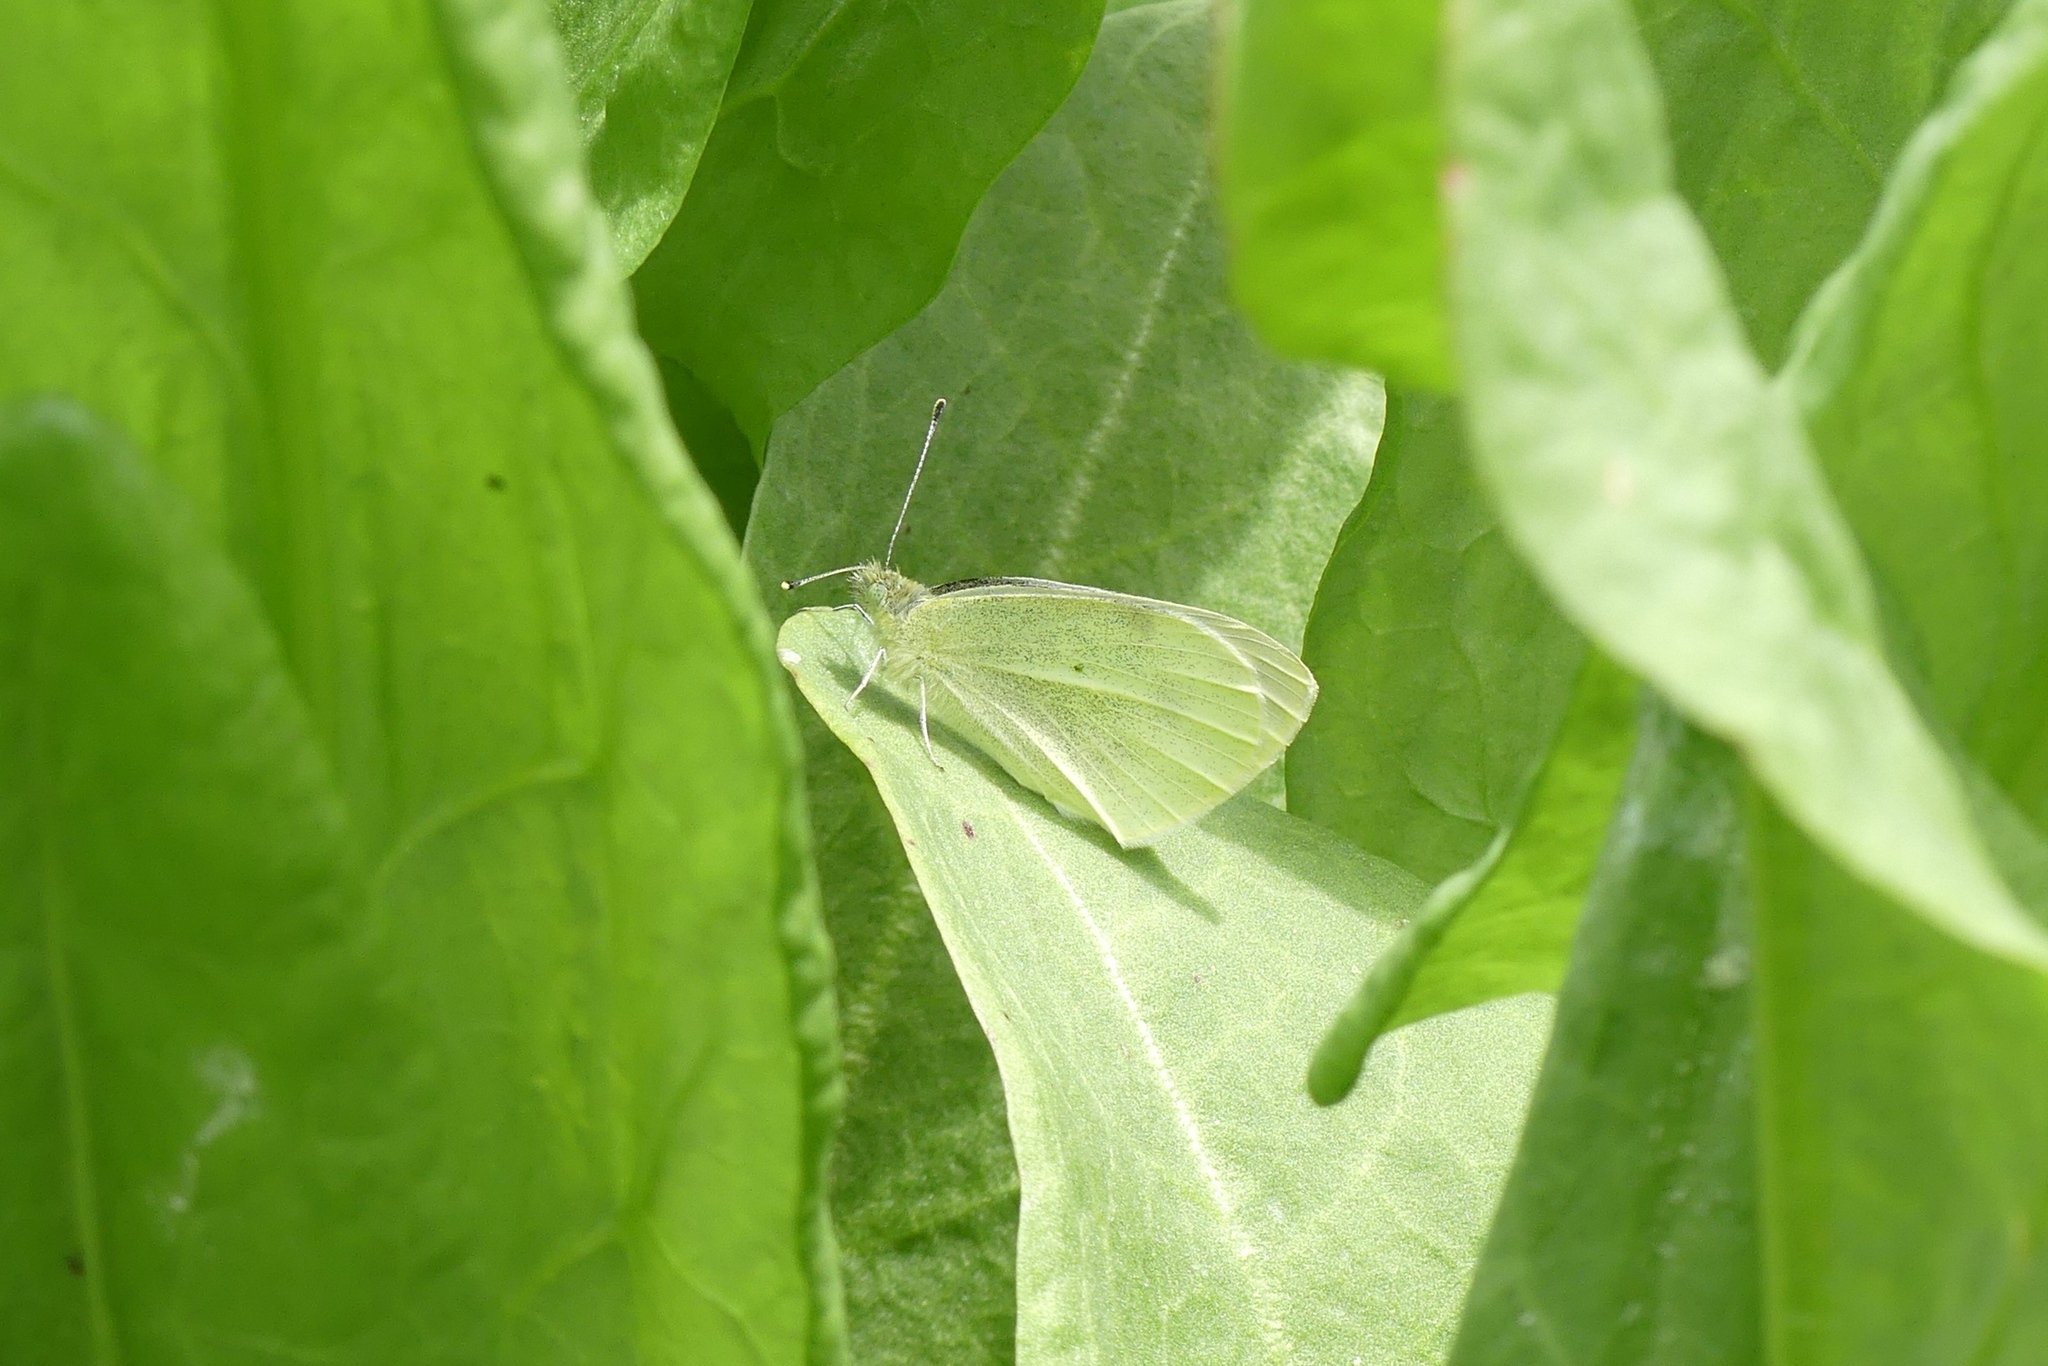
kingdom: Animalia
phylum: Arthropoda
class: Insecta
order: Lepidoptera
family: Pieridae
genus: Pieris
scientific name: Pieris rapae
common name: Small white
